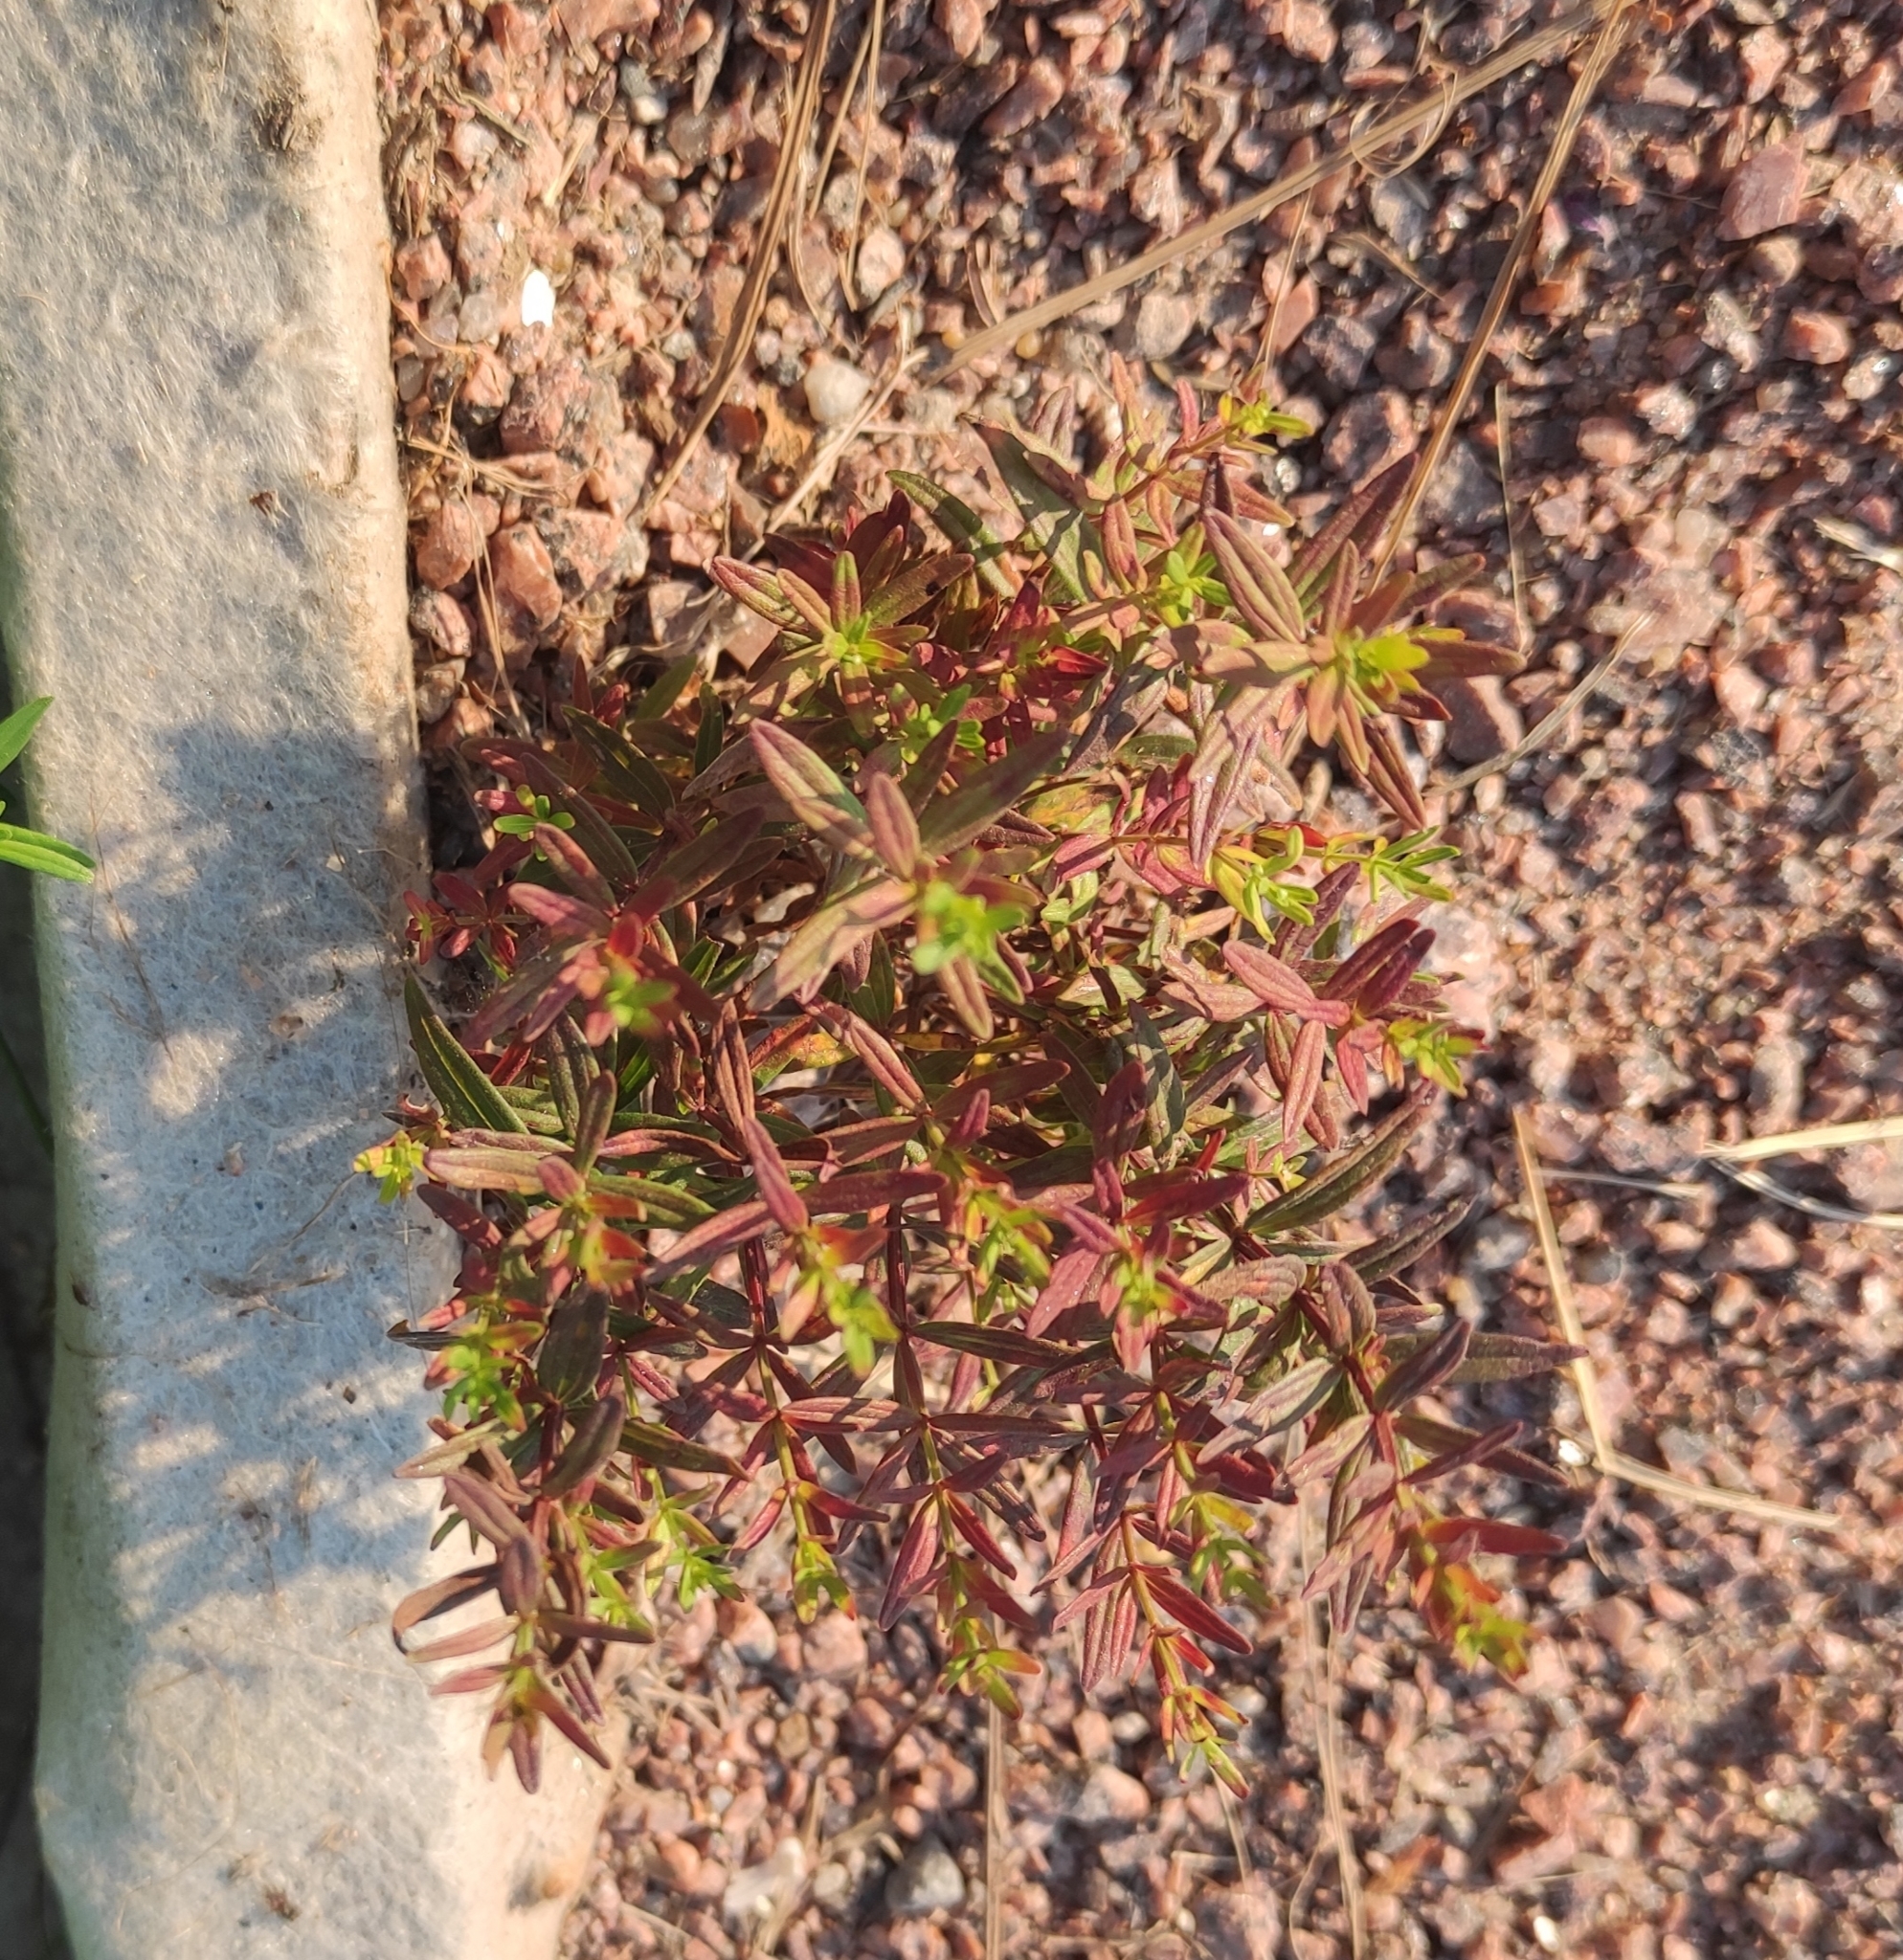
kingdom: Plantae
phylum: Tracheophyta
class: Magnoliopsida
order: Gentianales
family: Rubiaceae
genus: Galium
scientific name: Galium boreale
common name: Northern bedstraw
